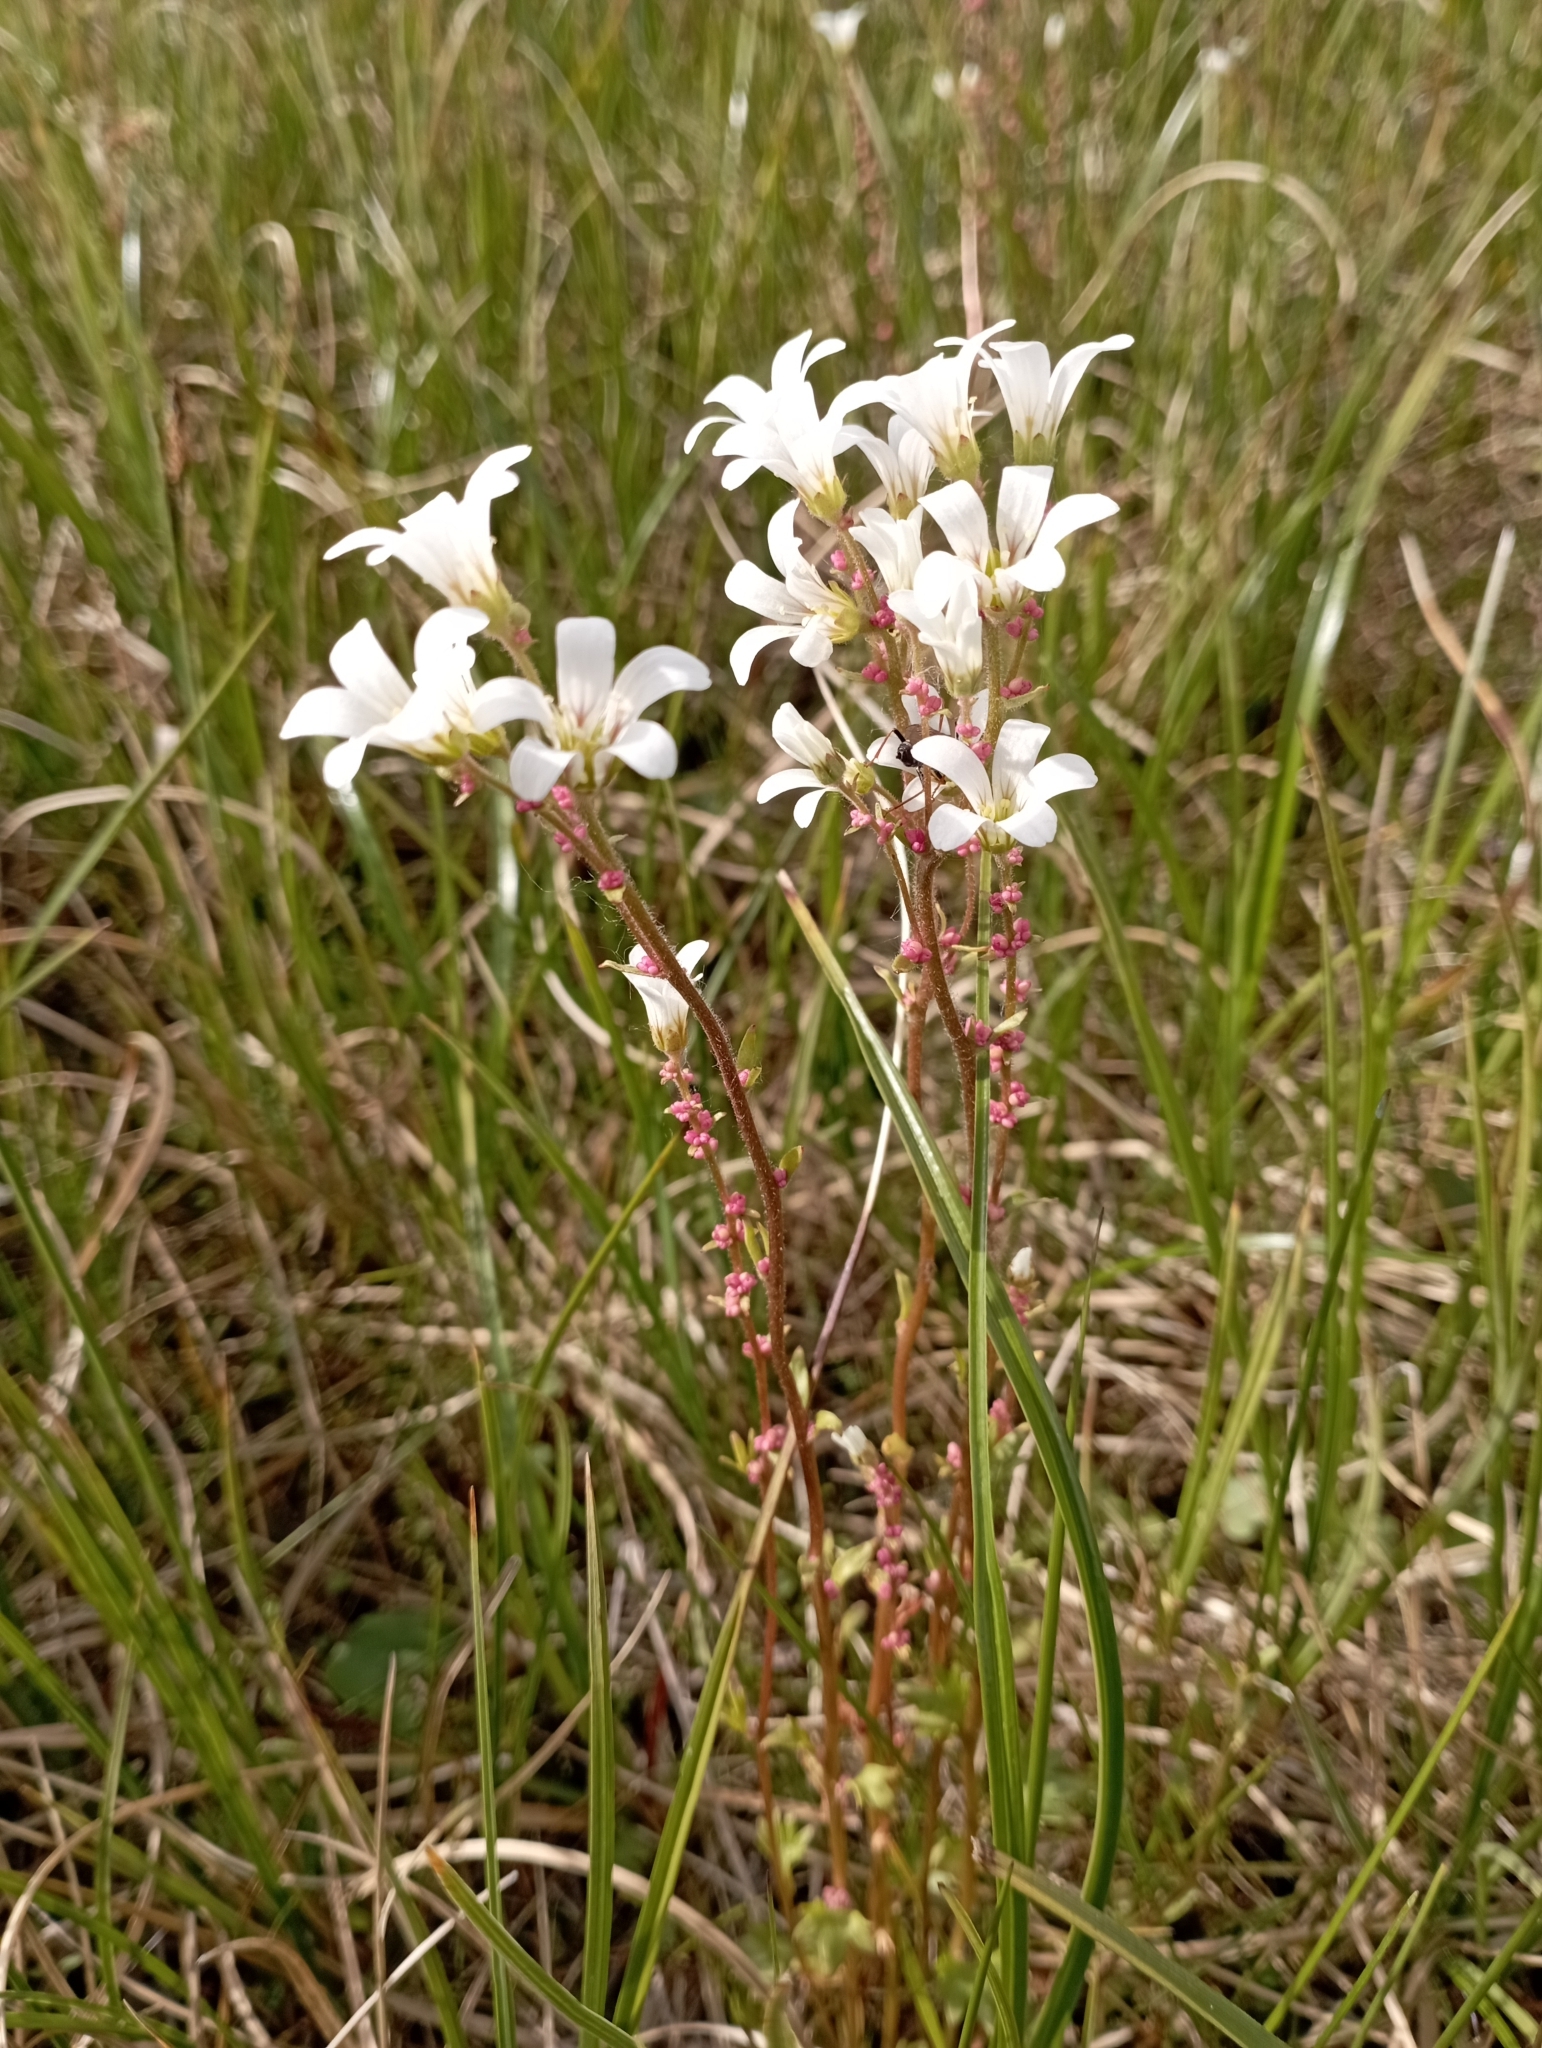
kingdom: Plantae
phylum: Tracheophyta
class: Magnoliopsida
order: Saxifragales
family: Saxifragaceae
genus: Saxifraga
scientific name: Saxifraga cernua
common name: Drooping saxifrage
